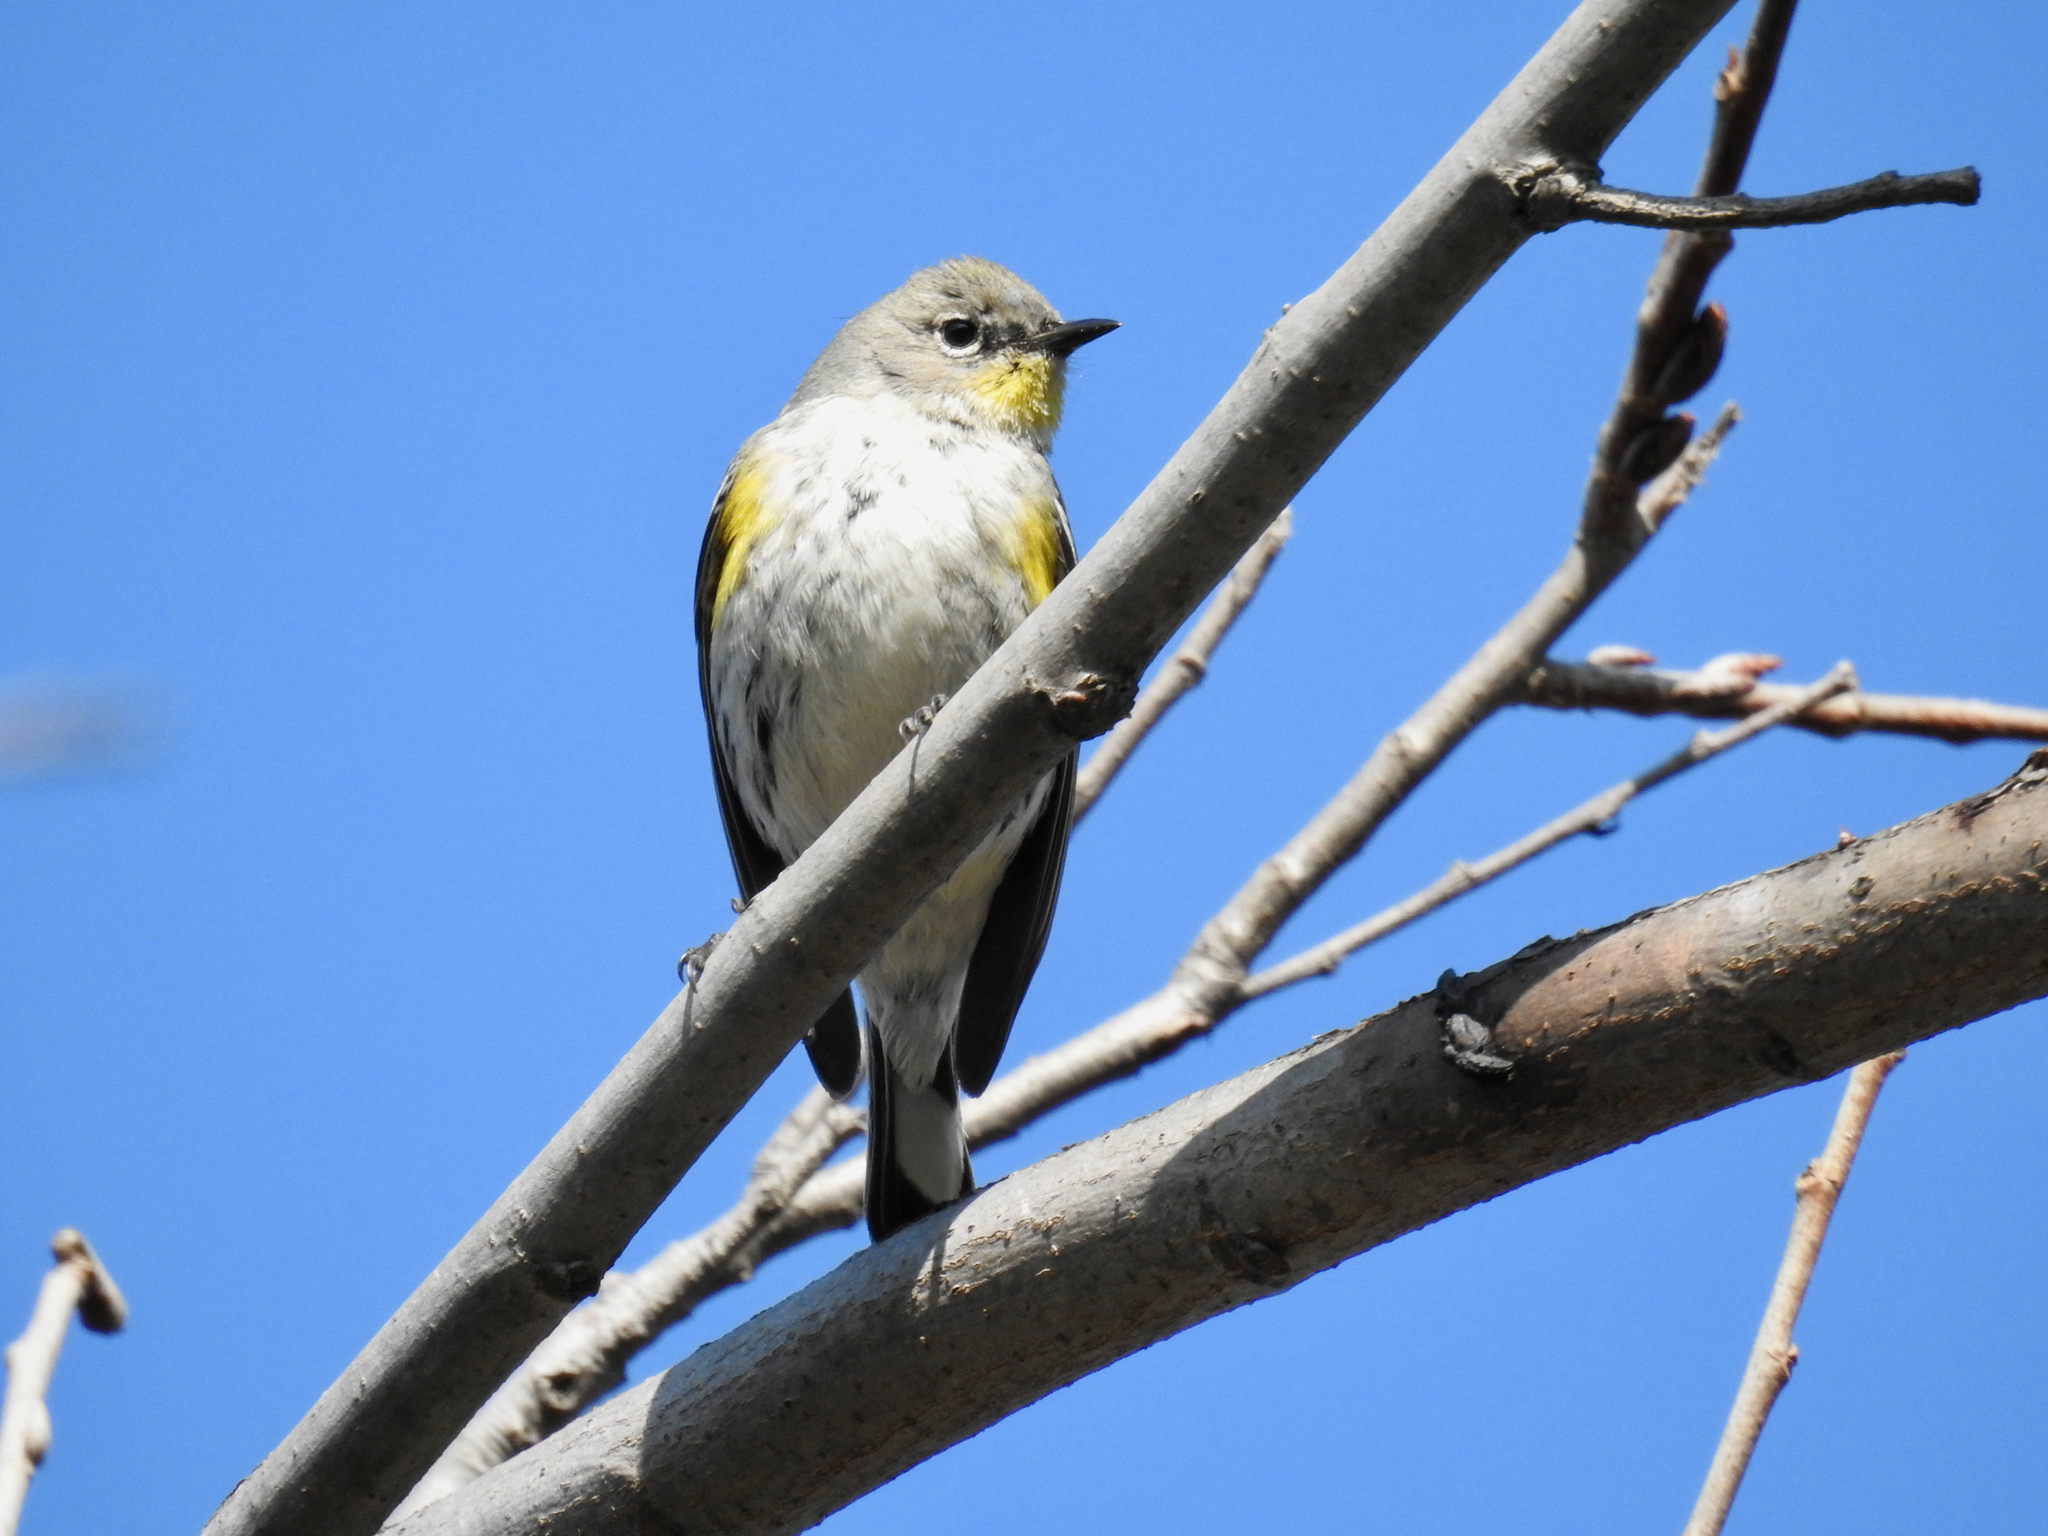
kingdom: Animalia
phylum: Chordata
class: Aves
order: Passeriformes
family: Parulidae
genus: Setophaga
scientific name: Setophaga coronata
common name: Myrtle warbler
